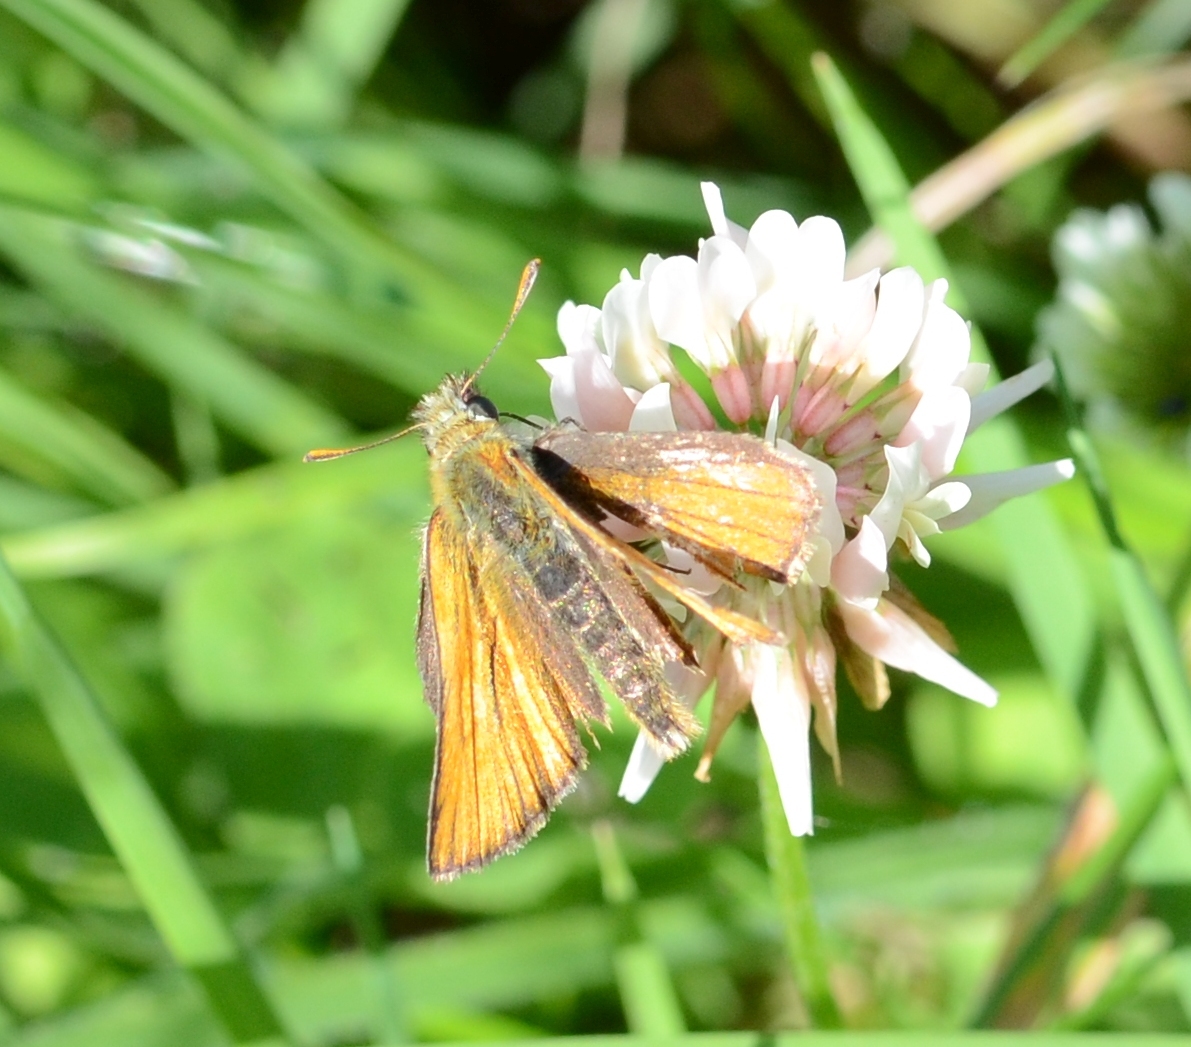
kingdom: Animalia
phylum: Arthropoda
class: Insecta
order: Lepidoptera
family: Hesperiidae
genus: Thymelicus
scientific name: Thymelicus sylvestris
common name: Small skipper
